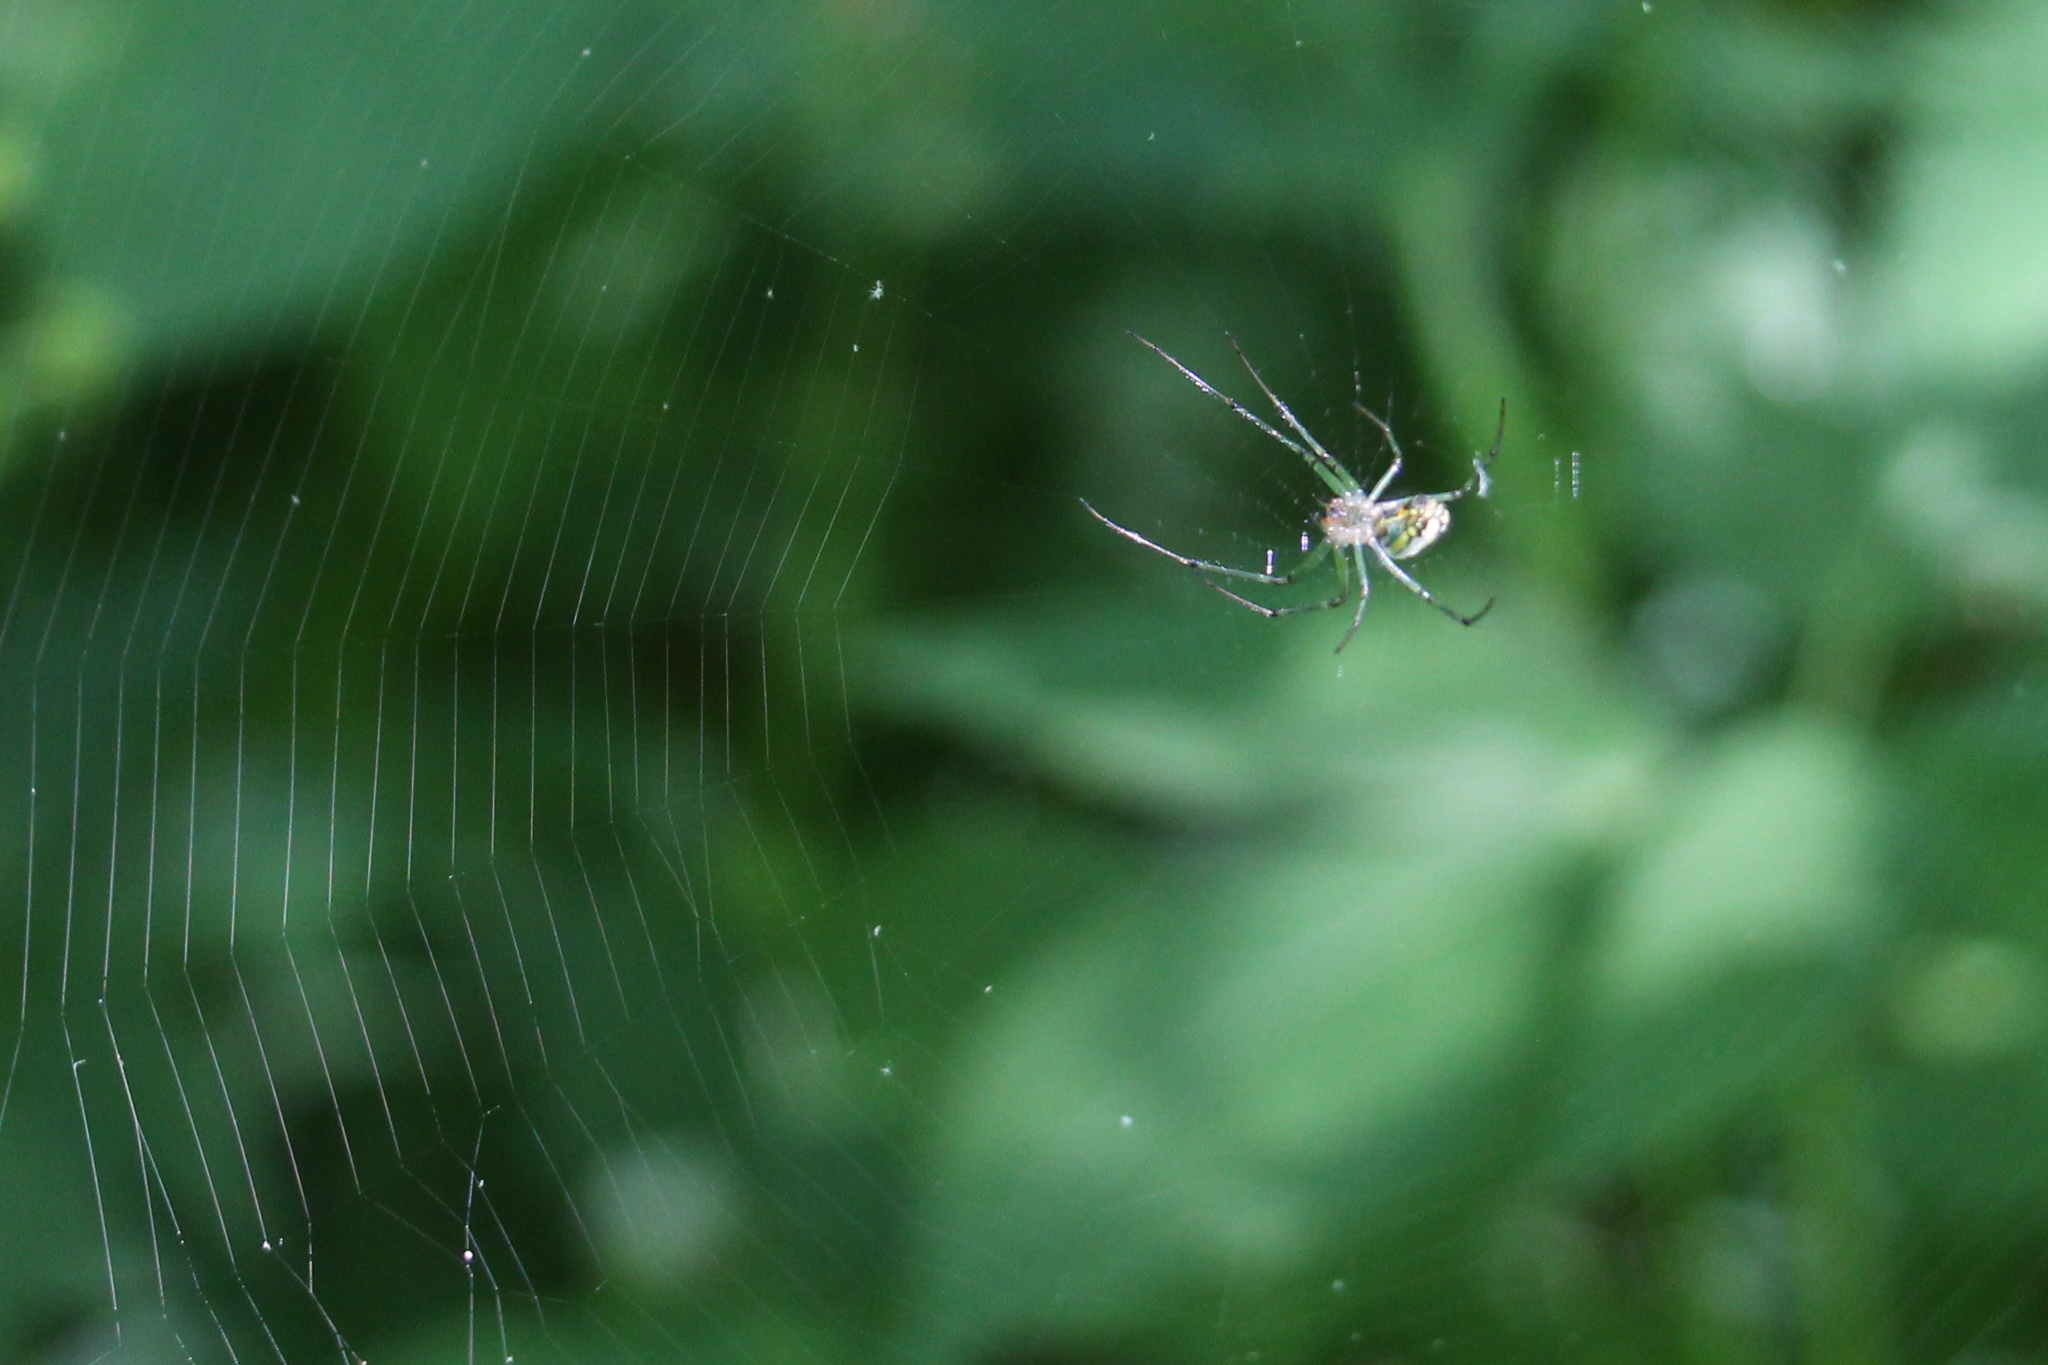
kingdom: Animalia
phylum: Arthropoda
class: Arachnida
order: Araneae
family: Tetragnathidae
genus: Leucauge
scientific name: Leucauge venusta
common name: Longjawed orb weavers
